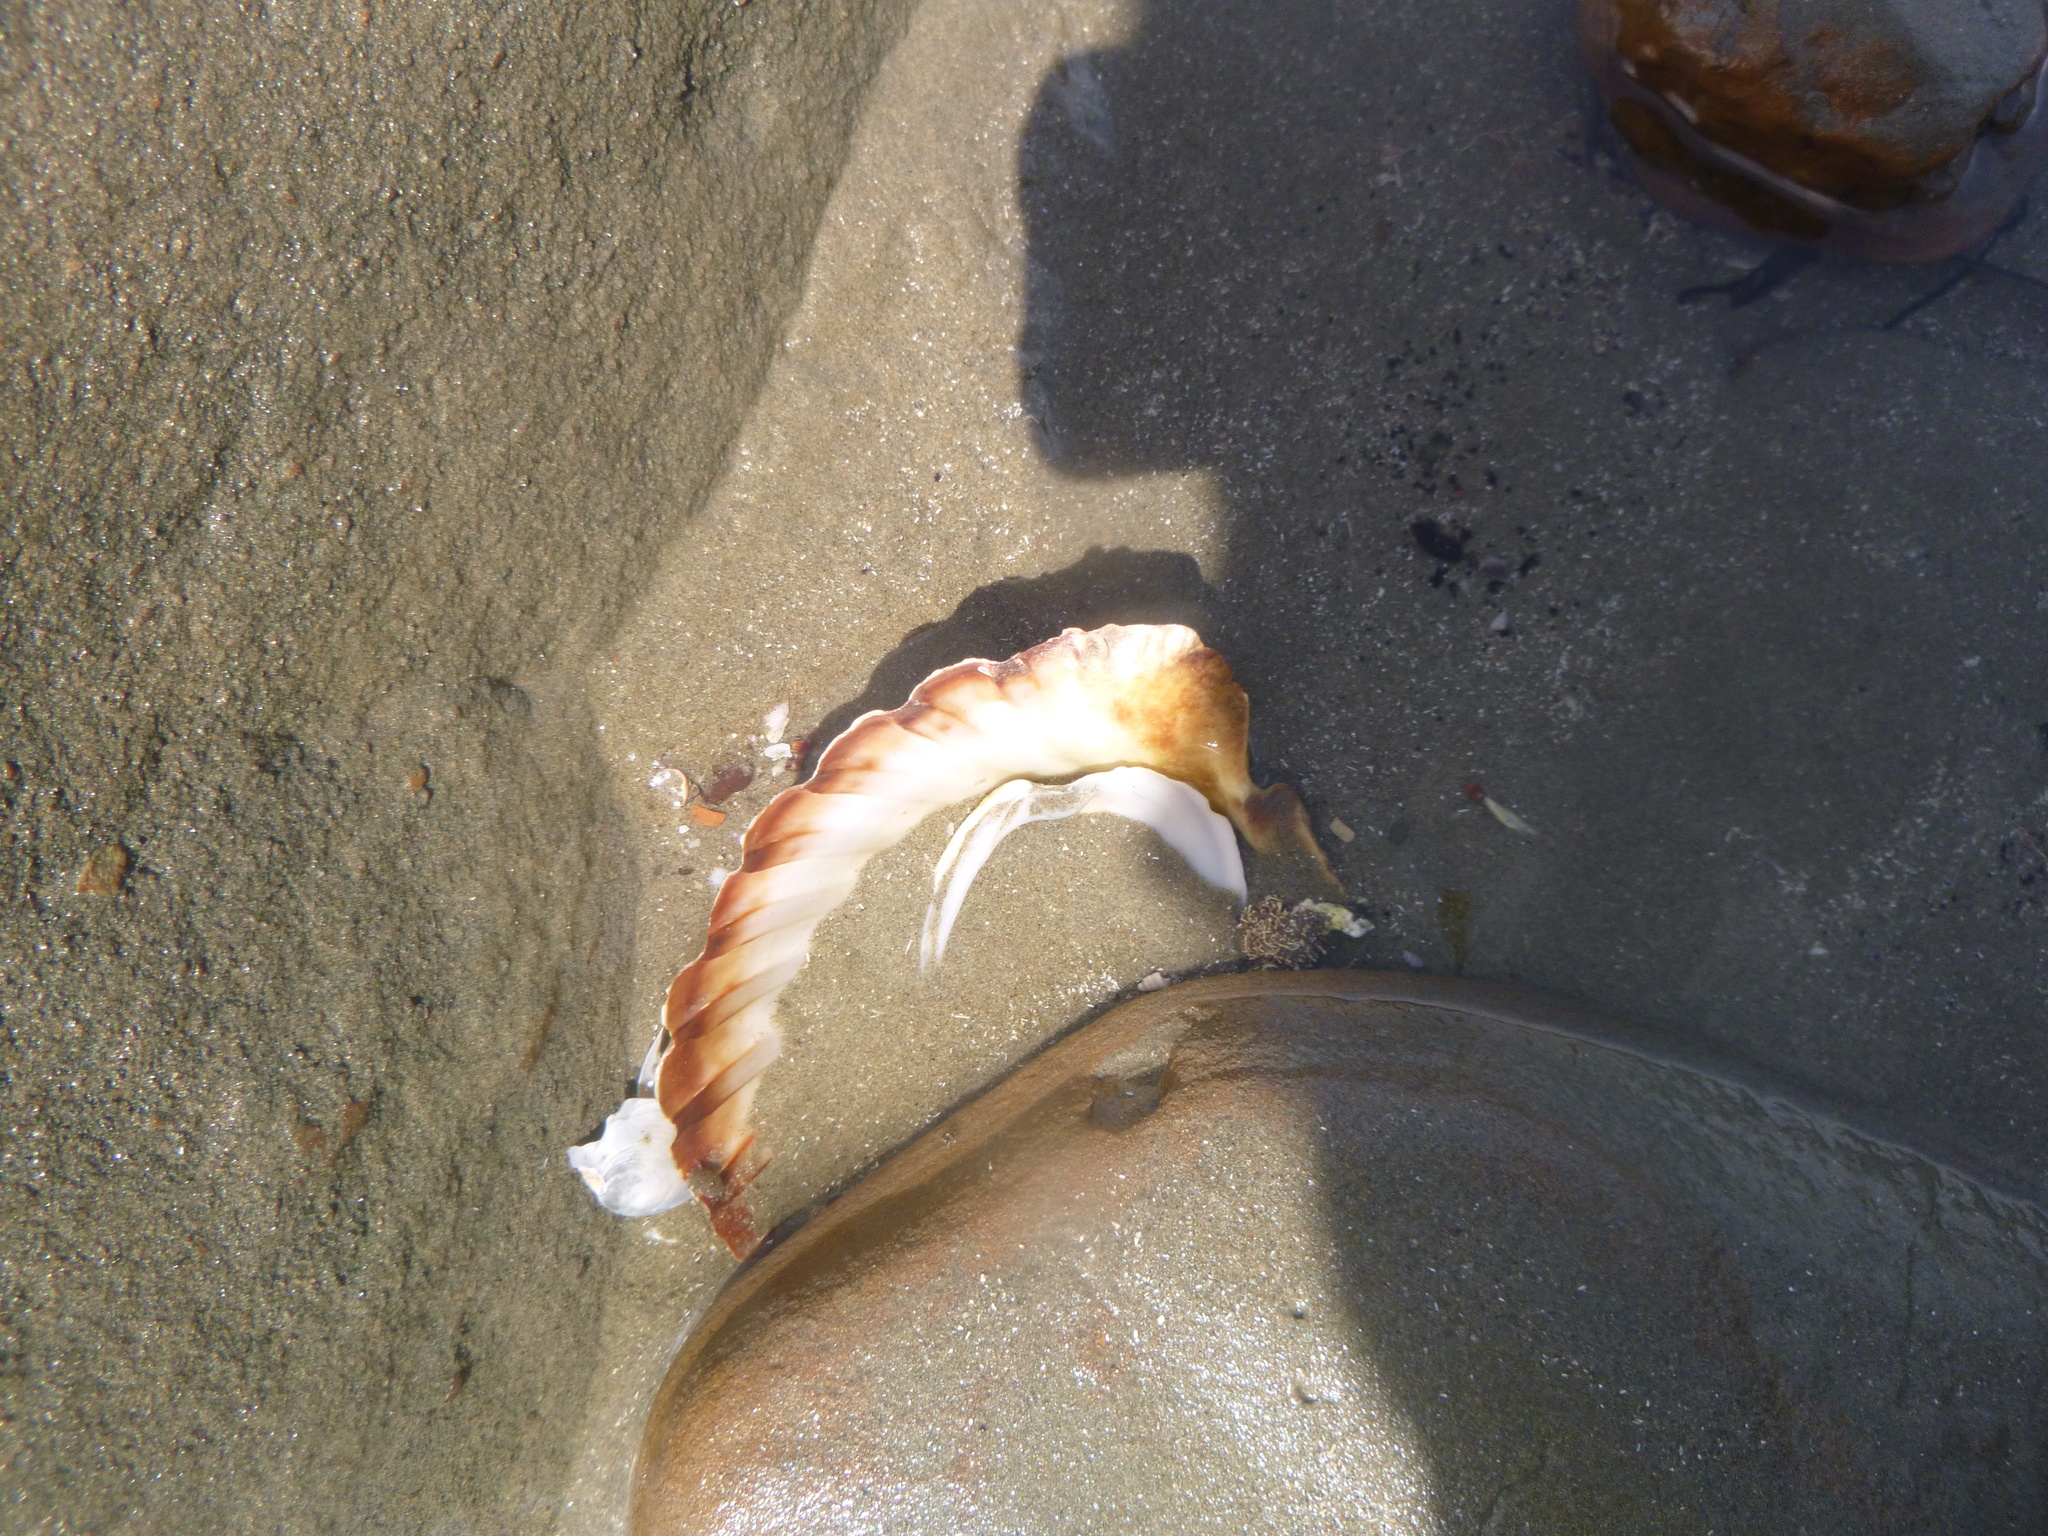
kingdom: Animalia
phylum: Mollusca
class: Bivalvia
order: Pectinida
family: Pectinidae
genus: Pecten
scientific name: Pecten novaezelandiae
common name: New zealand scallop
